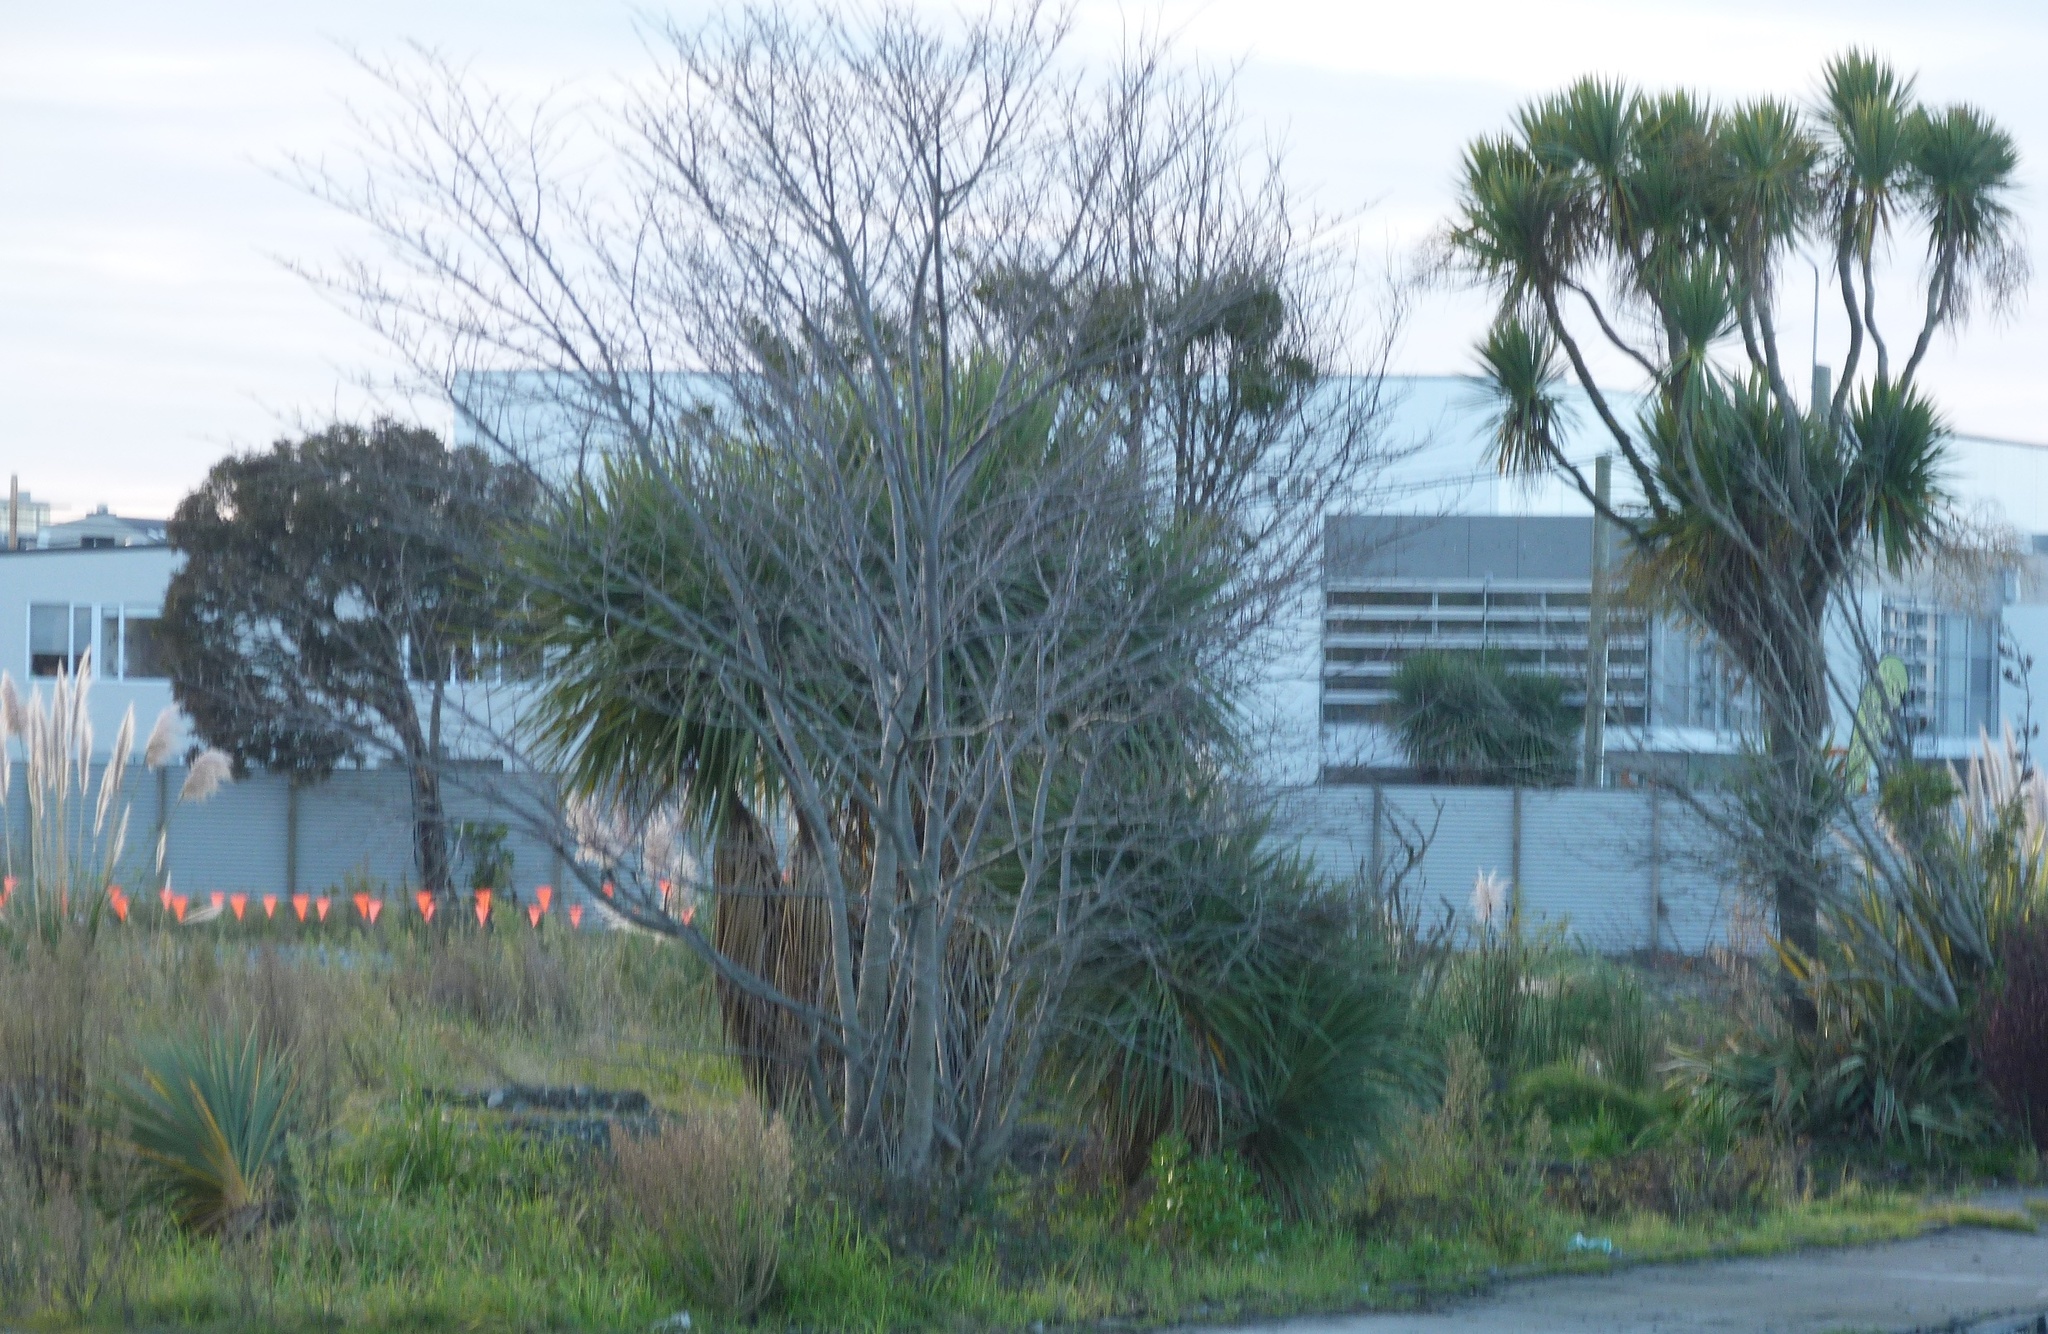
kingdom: Plantae
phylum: Tracheophyta
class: Liliopsida
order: Asparagales
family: Asparagaceae
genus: Cordyline
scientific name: Cordyline australis
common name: Cabbage-palm
